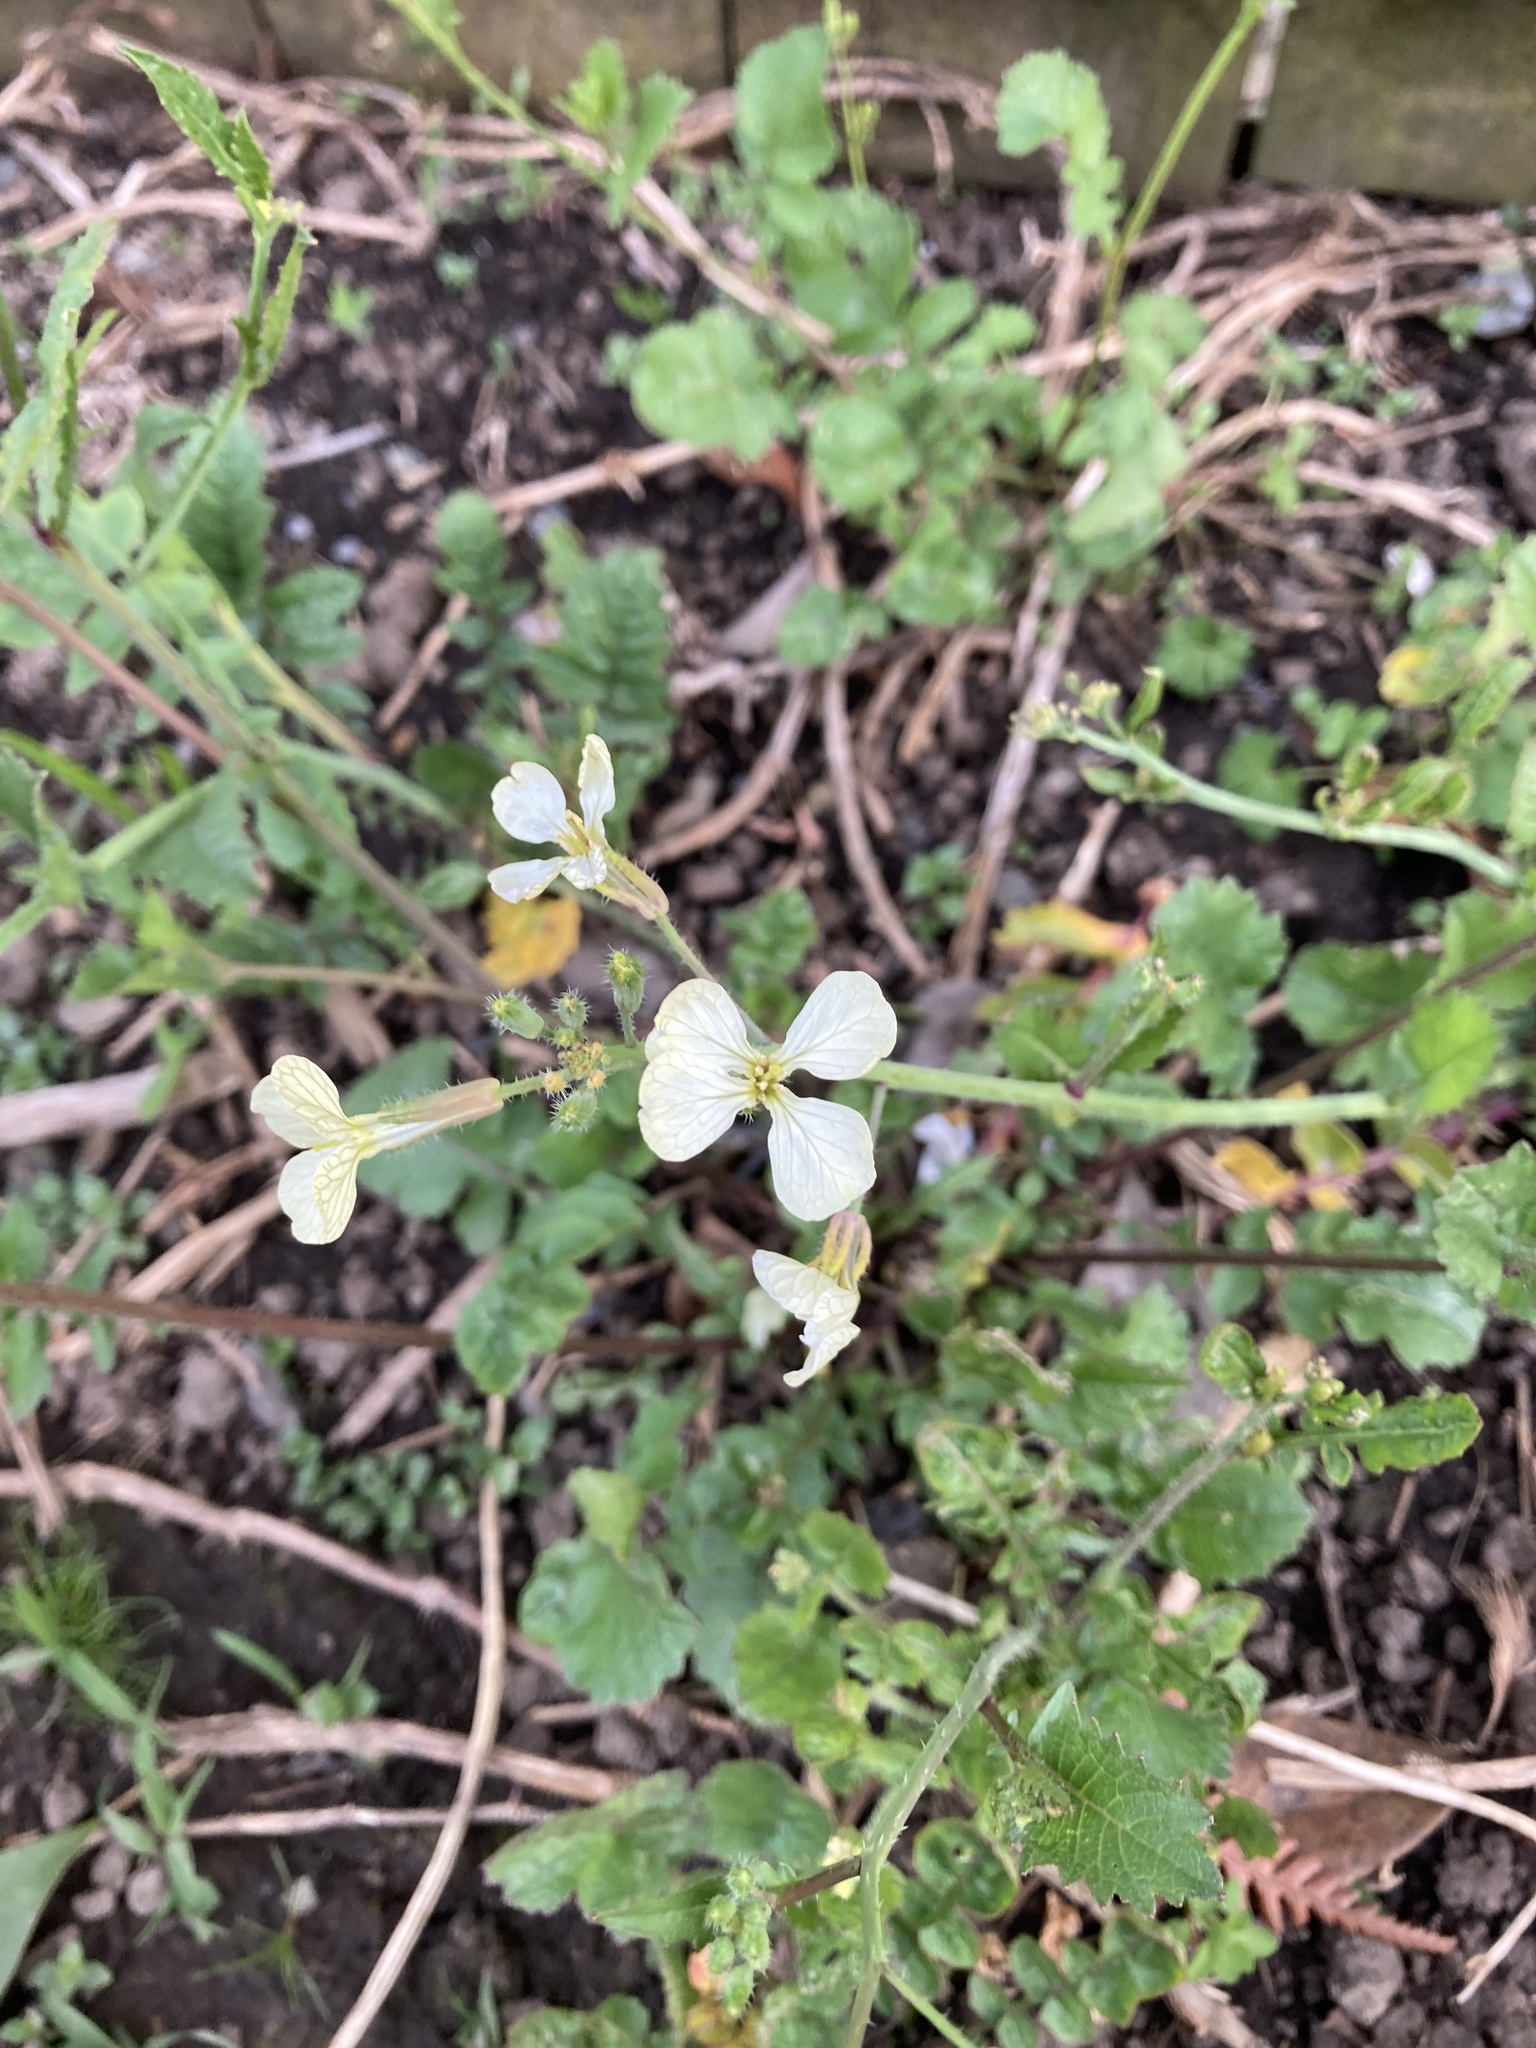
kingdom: Plantae
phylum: Tracheophyta
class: Magnoliopsida
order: Brassicales
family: Brassicaceae
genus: Raphanus
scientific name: Raphanus raphanistrum
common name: Wild radish
